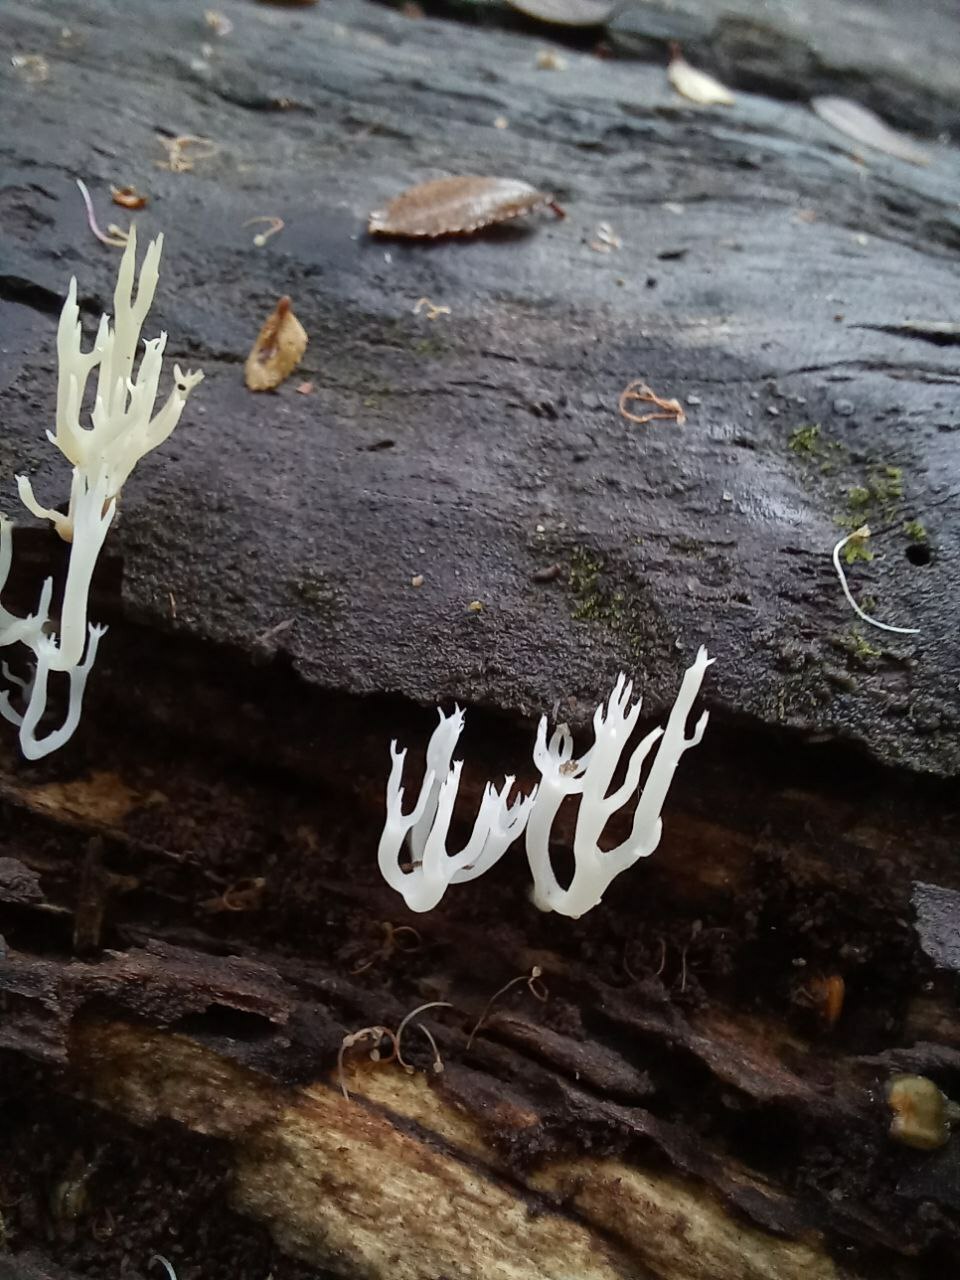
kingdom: Fungi
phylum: Basidiomycota
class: Agaricomycetes
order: Russulales
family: Auriscalpiaceae
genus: Artomyces
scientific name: Artomyces adrienneae
